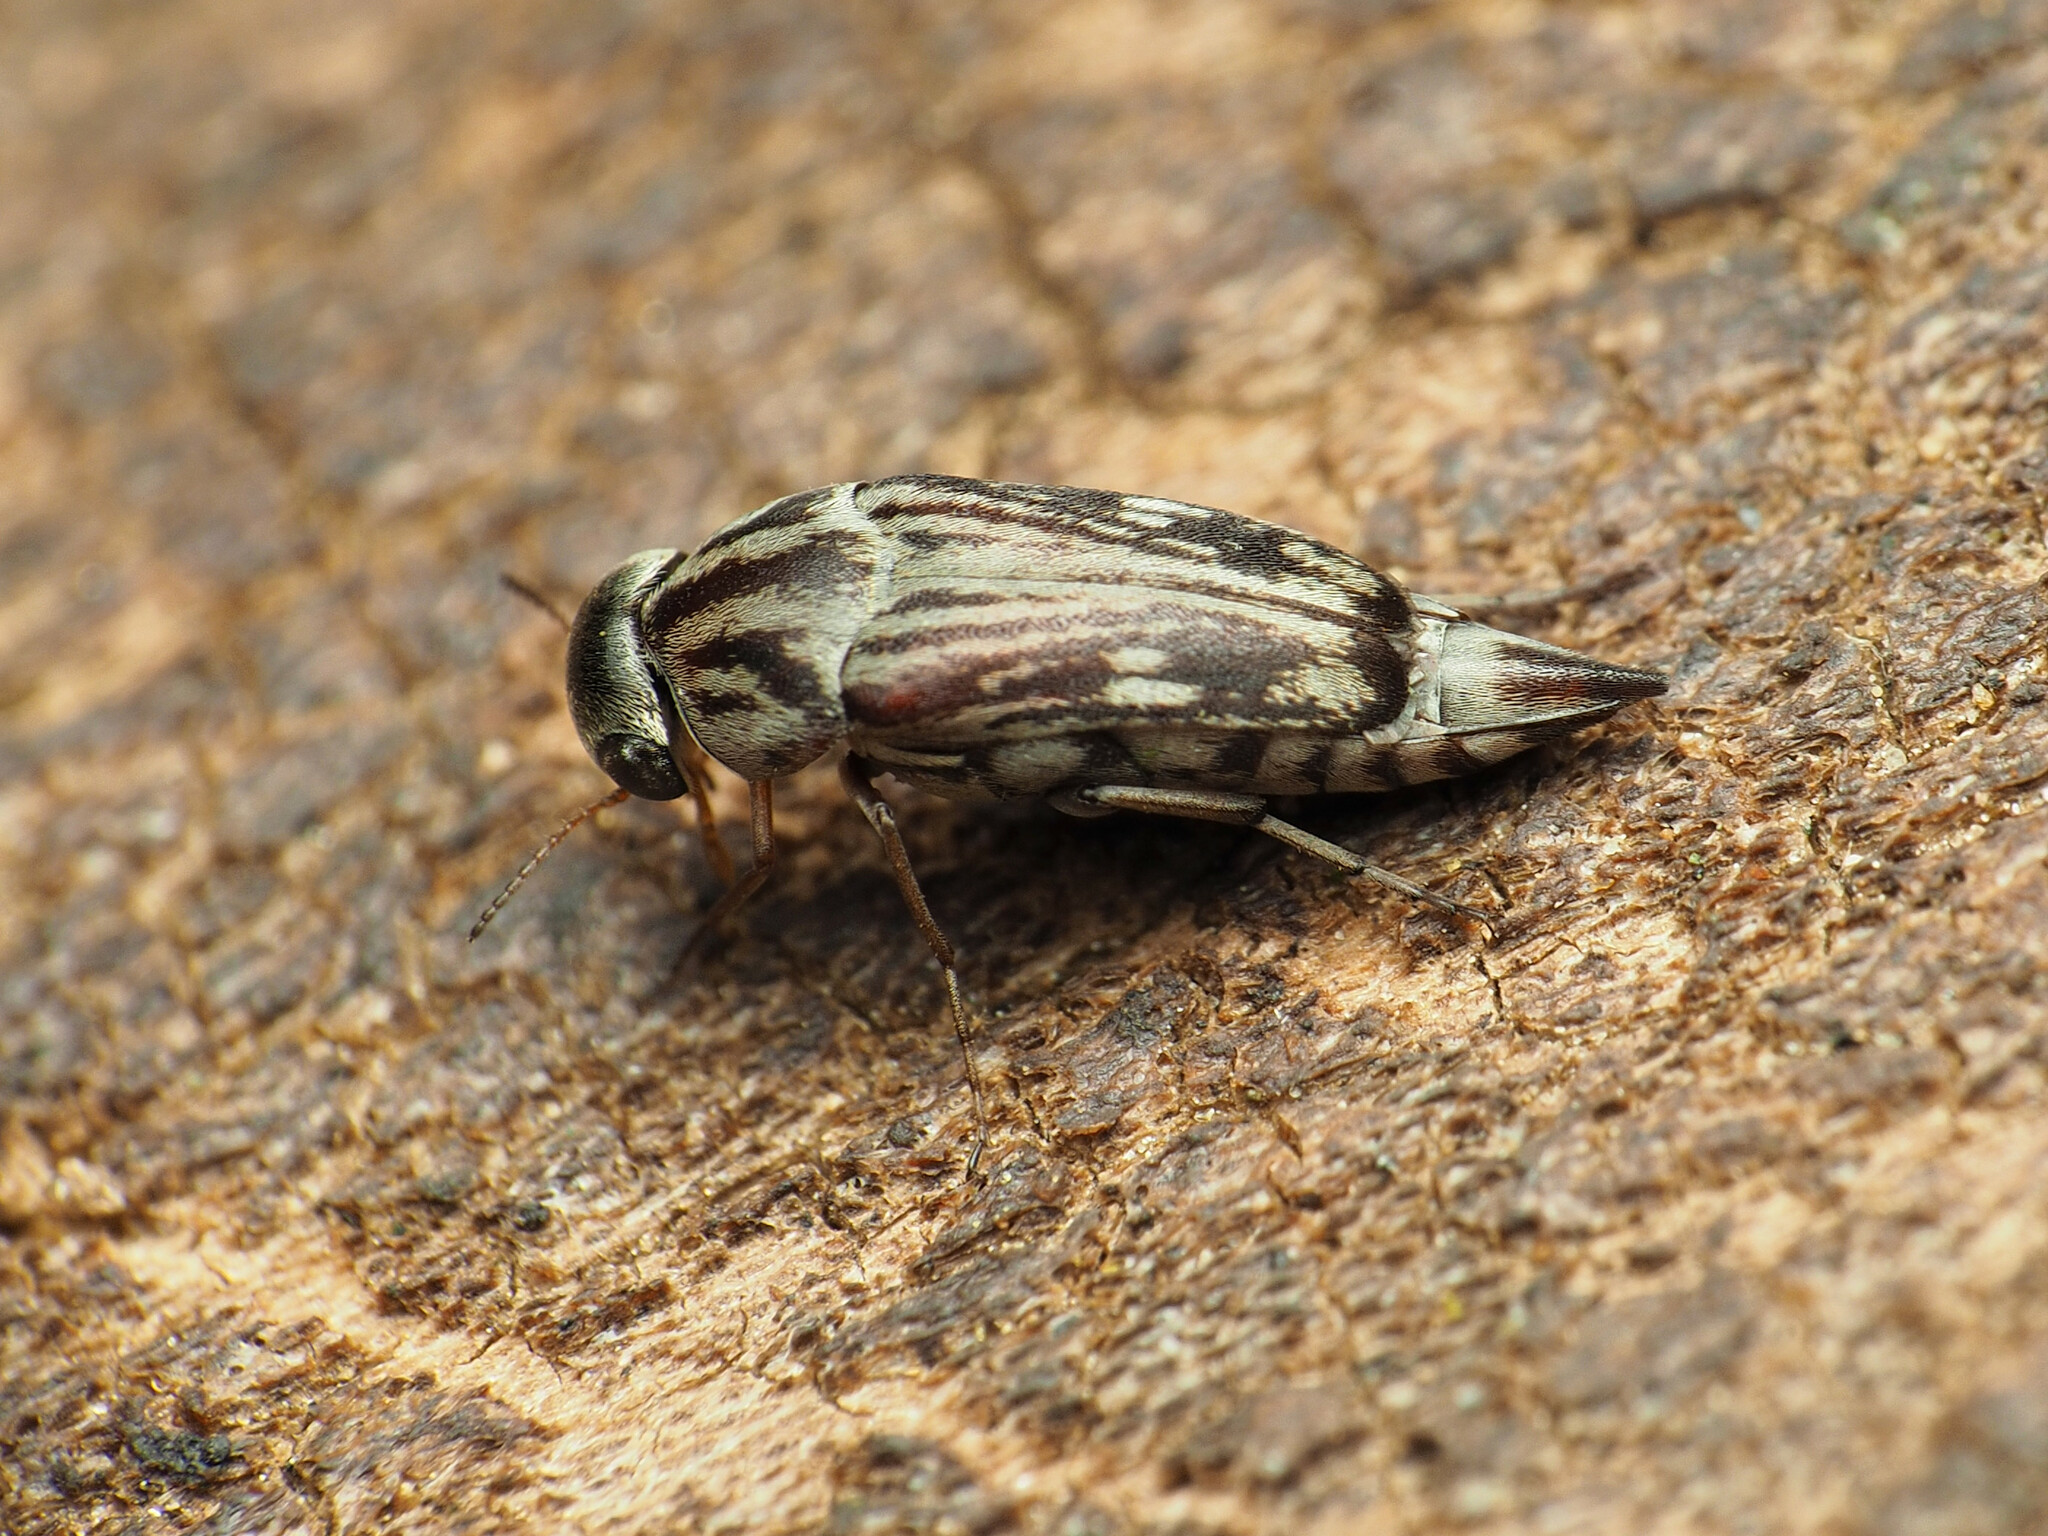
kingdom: Animalia
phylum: Arthropoda
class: Insecta
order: Coleoptera
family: Mordellidae
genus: Tomoxia
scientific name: Tomoxia lineella
